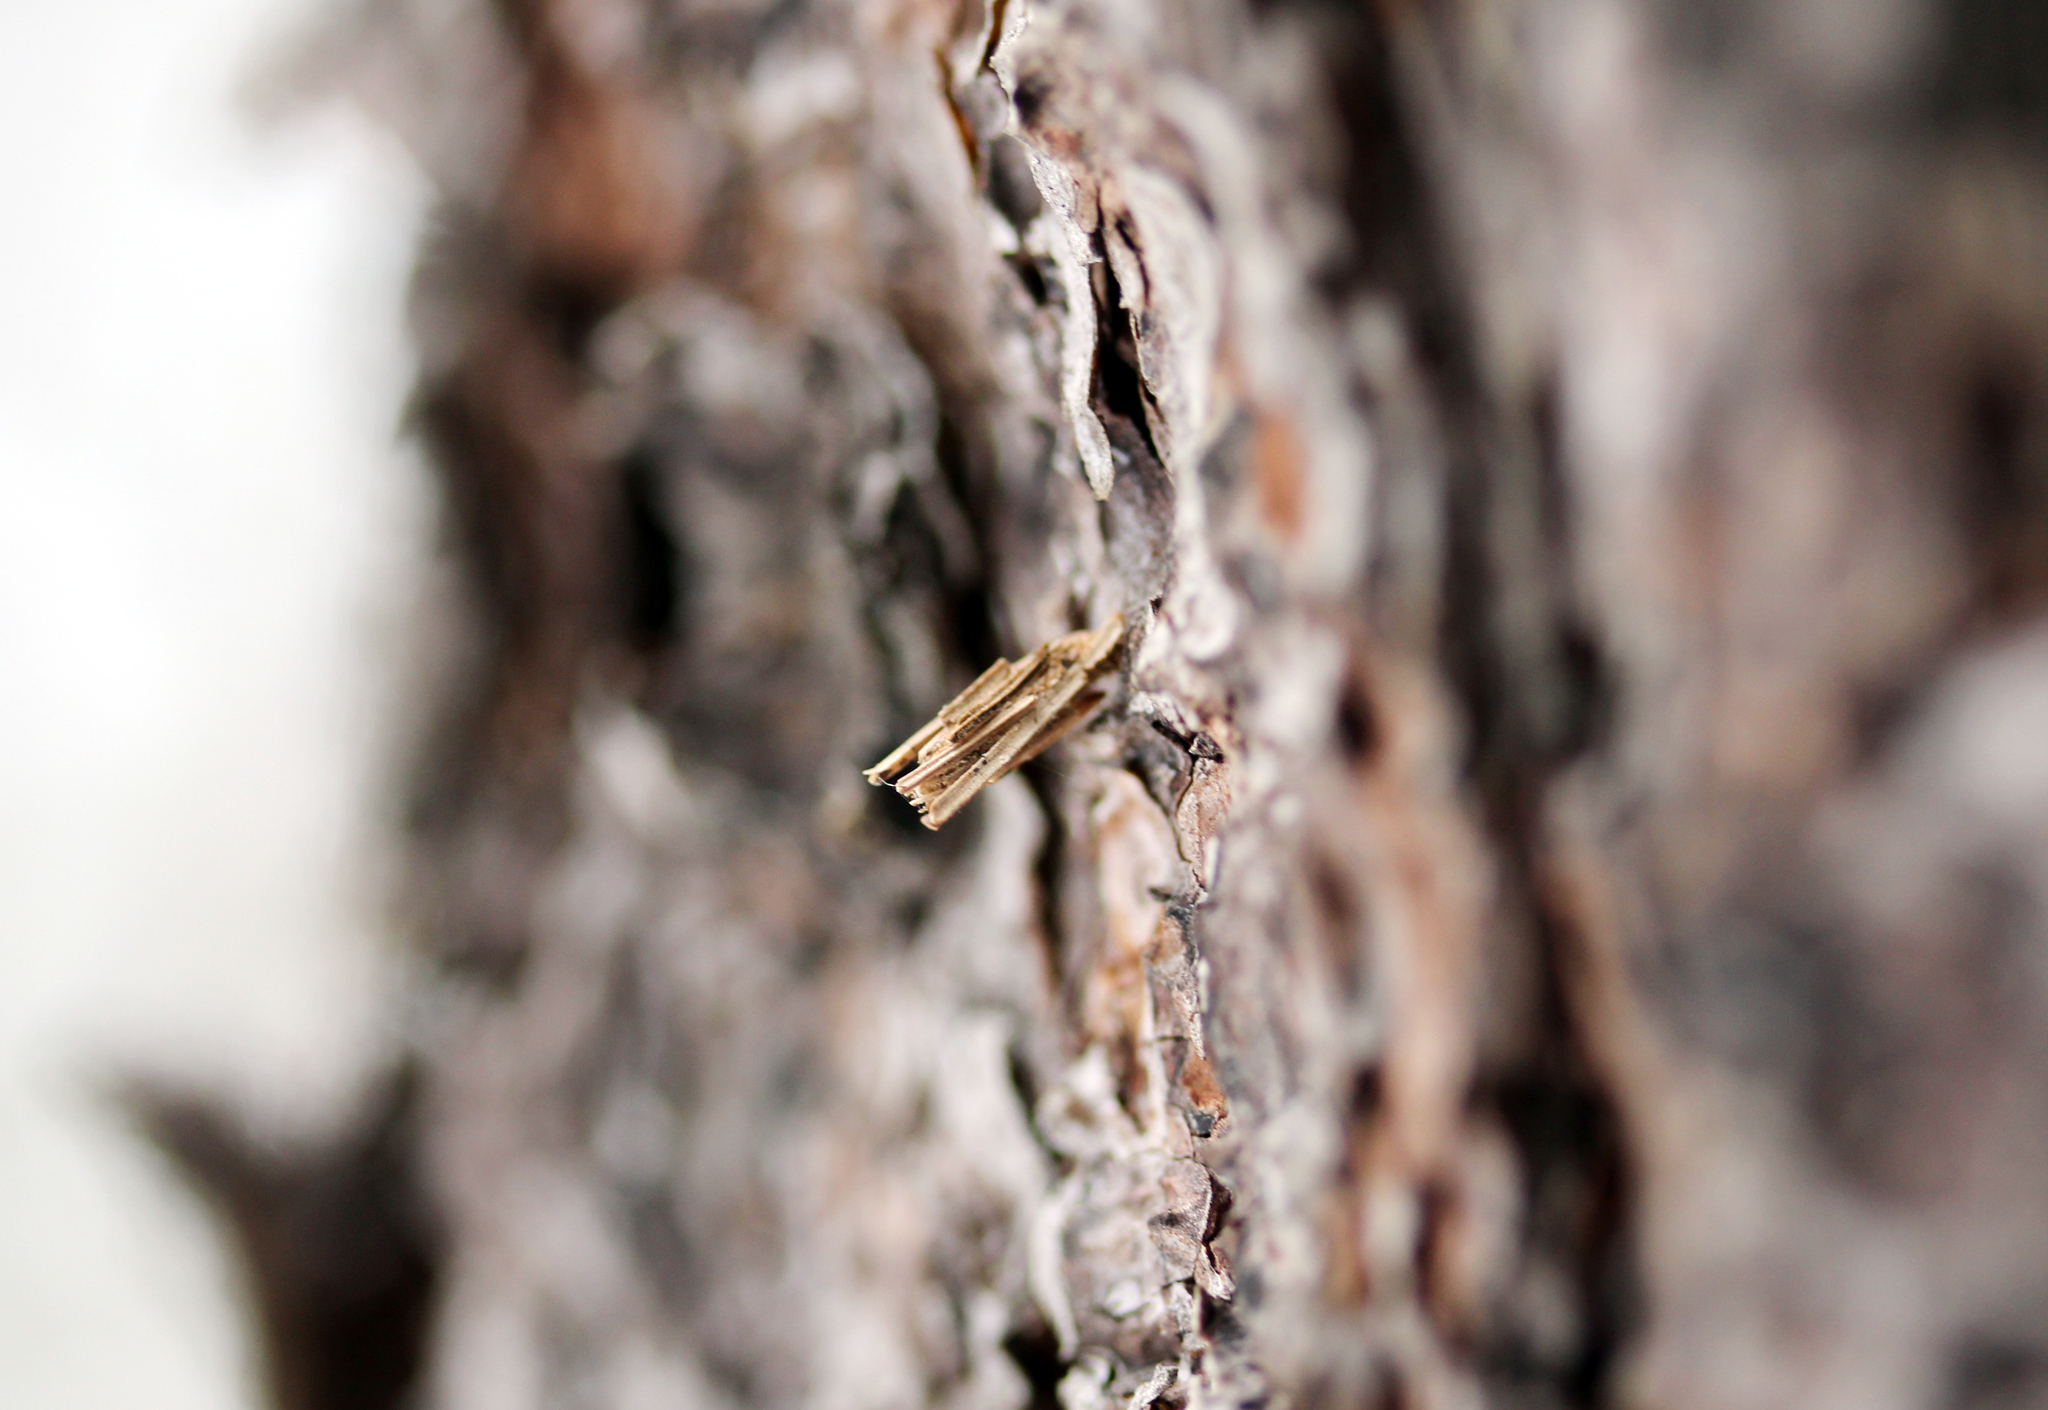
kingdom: Animalia
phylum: Arthropoda
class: Insecta
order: Lepidoptera
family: Psychidae
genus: Psyche
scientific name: Psyche casta
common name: Common sweep
